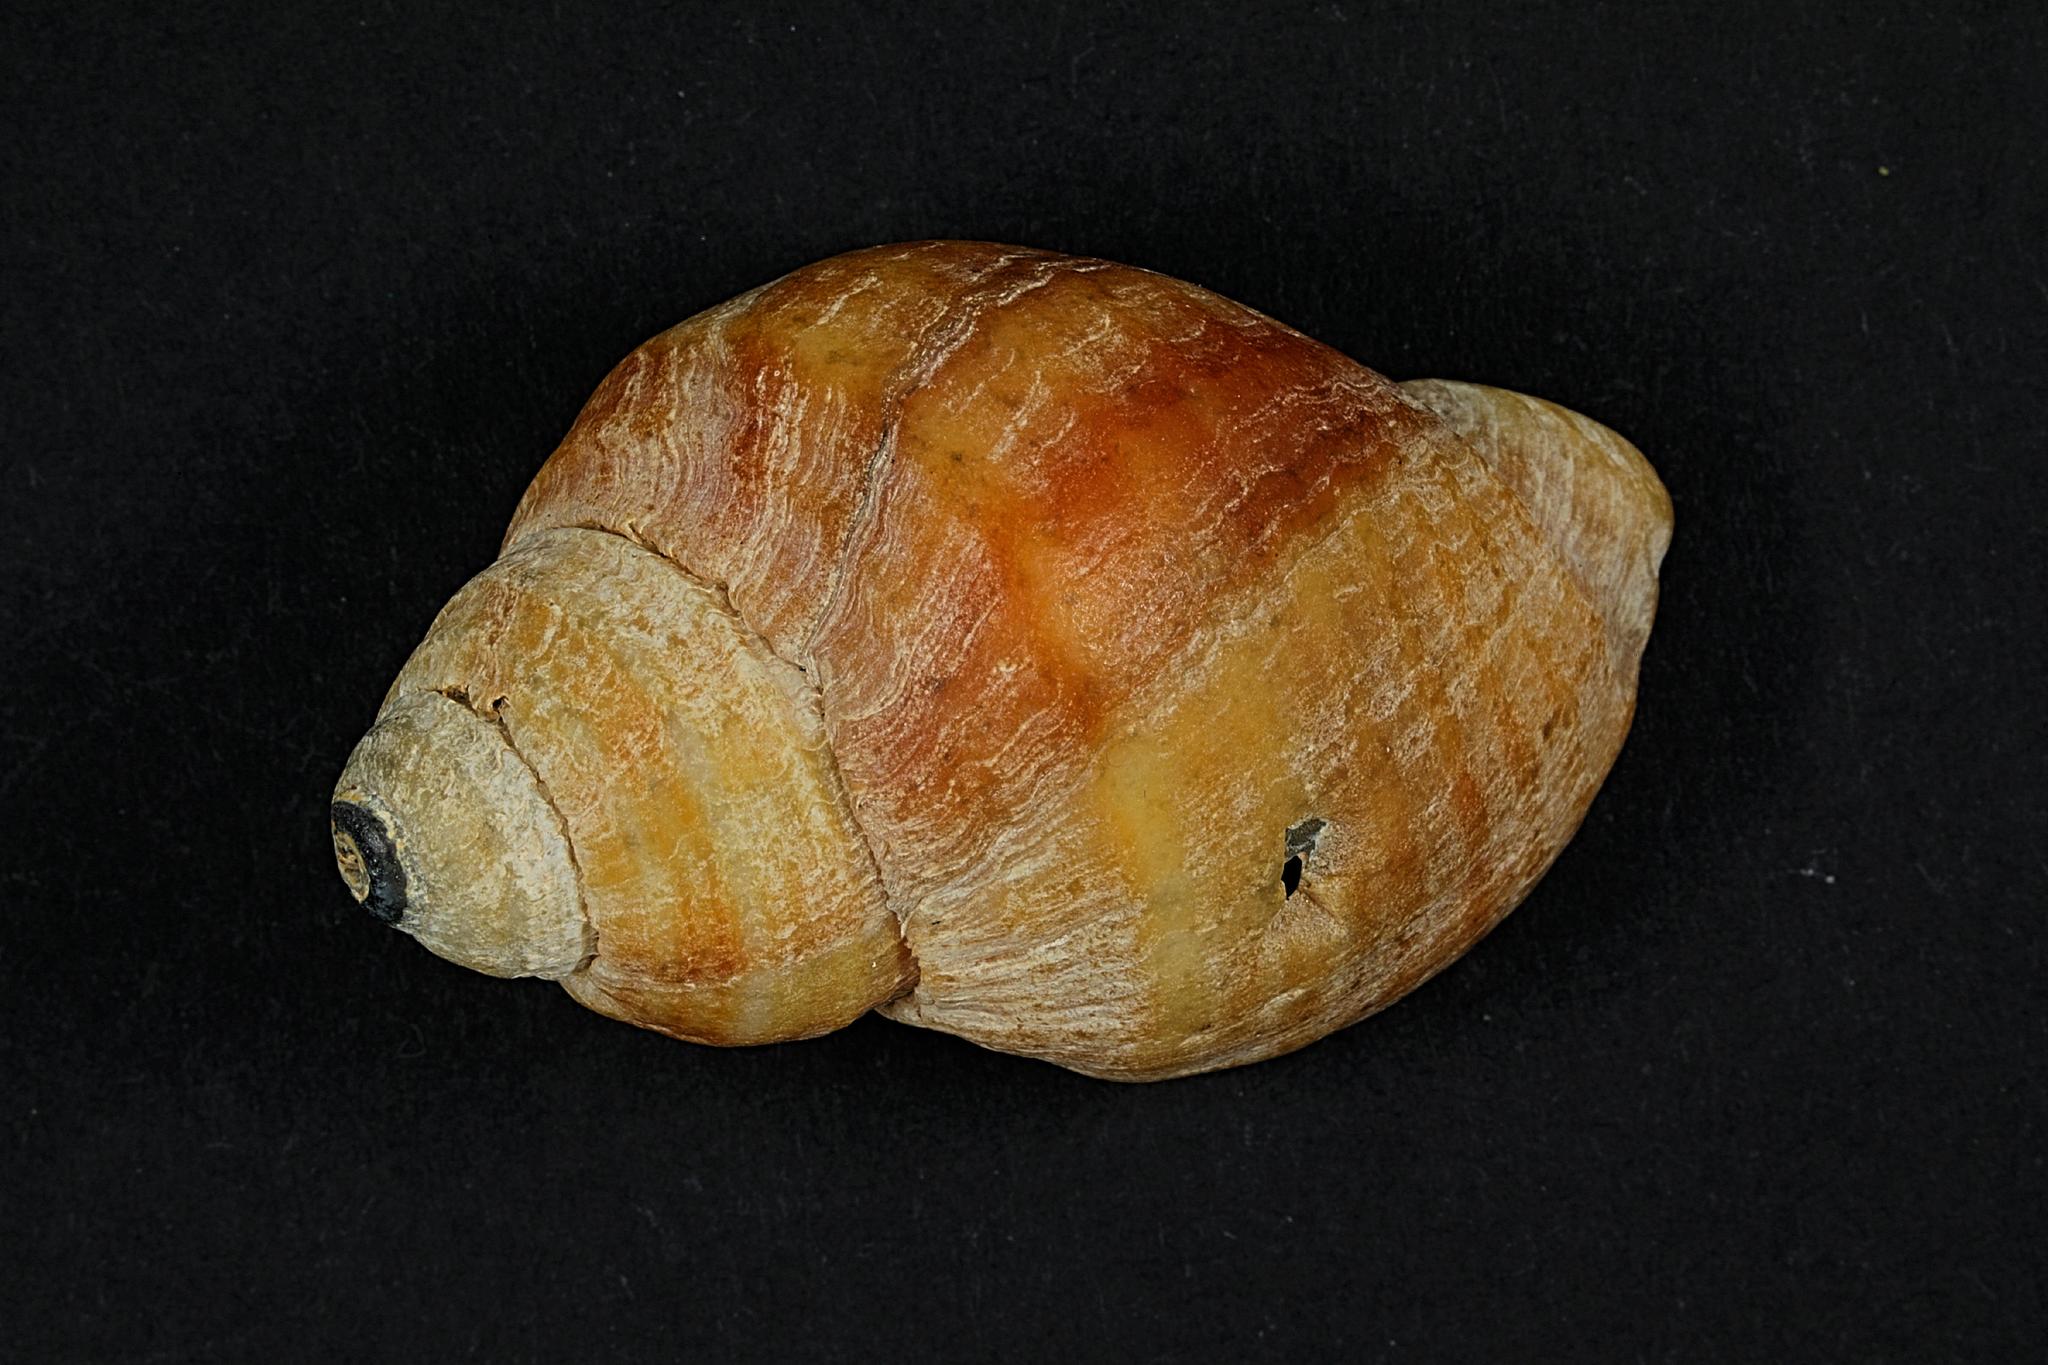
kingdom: Animalia
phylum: Mollusca
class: Gastropoda
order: Neogastropoda
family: Muricidae
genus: Nucella
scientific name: Nucella lapillus
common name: Dog whelk
